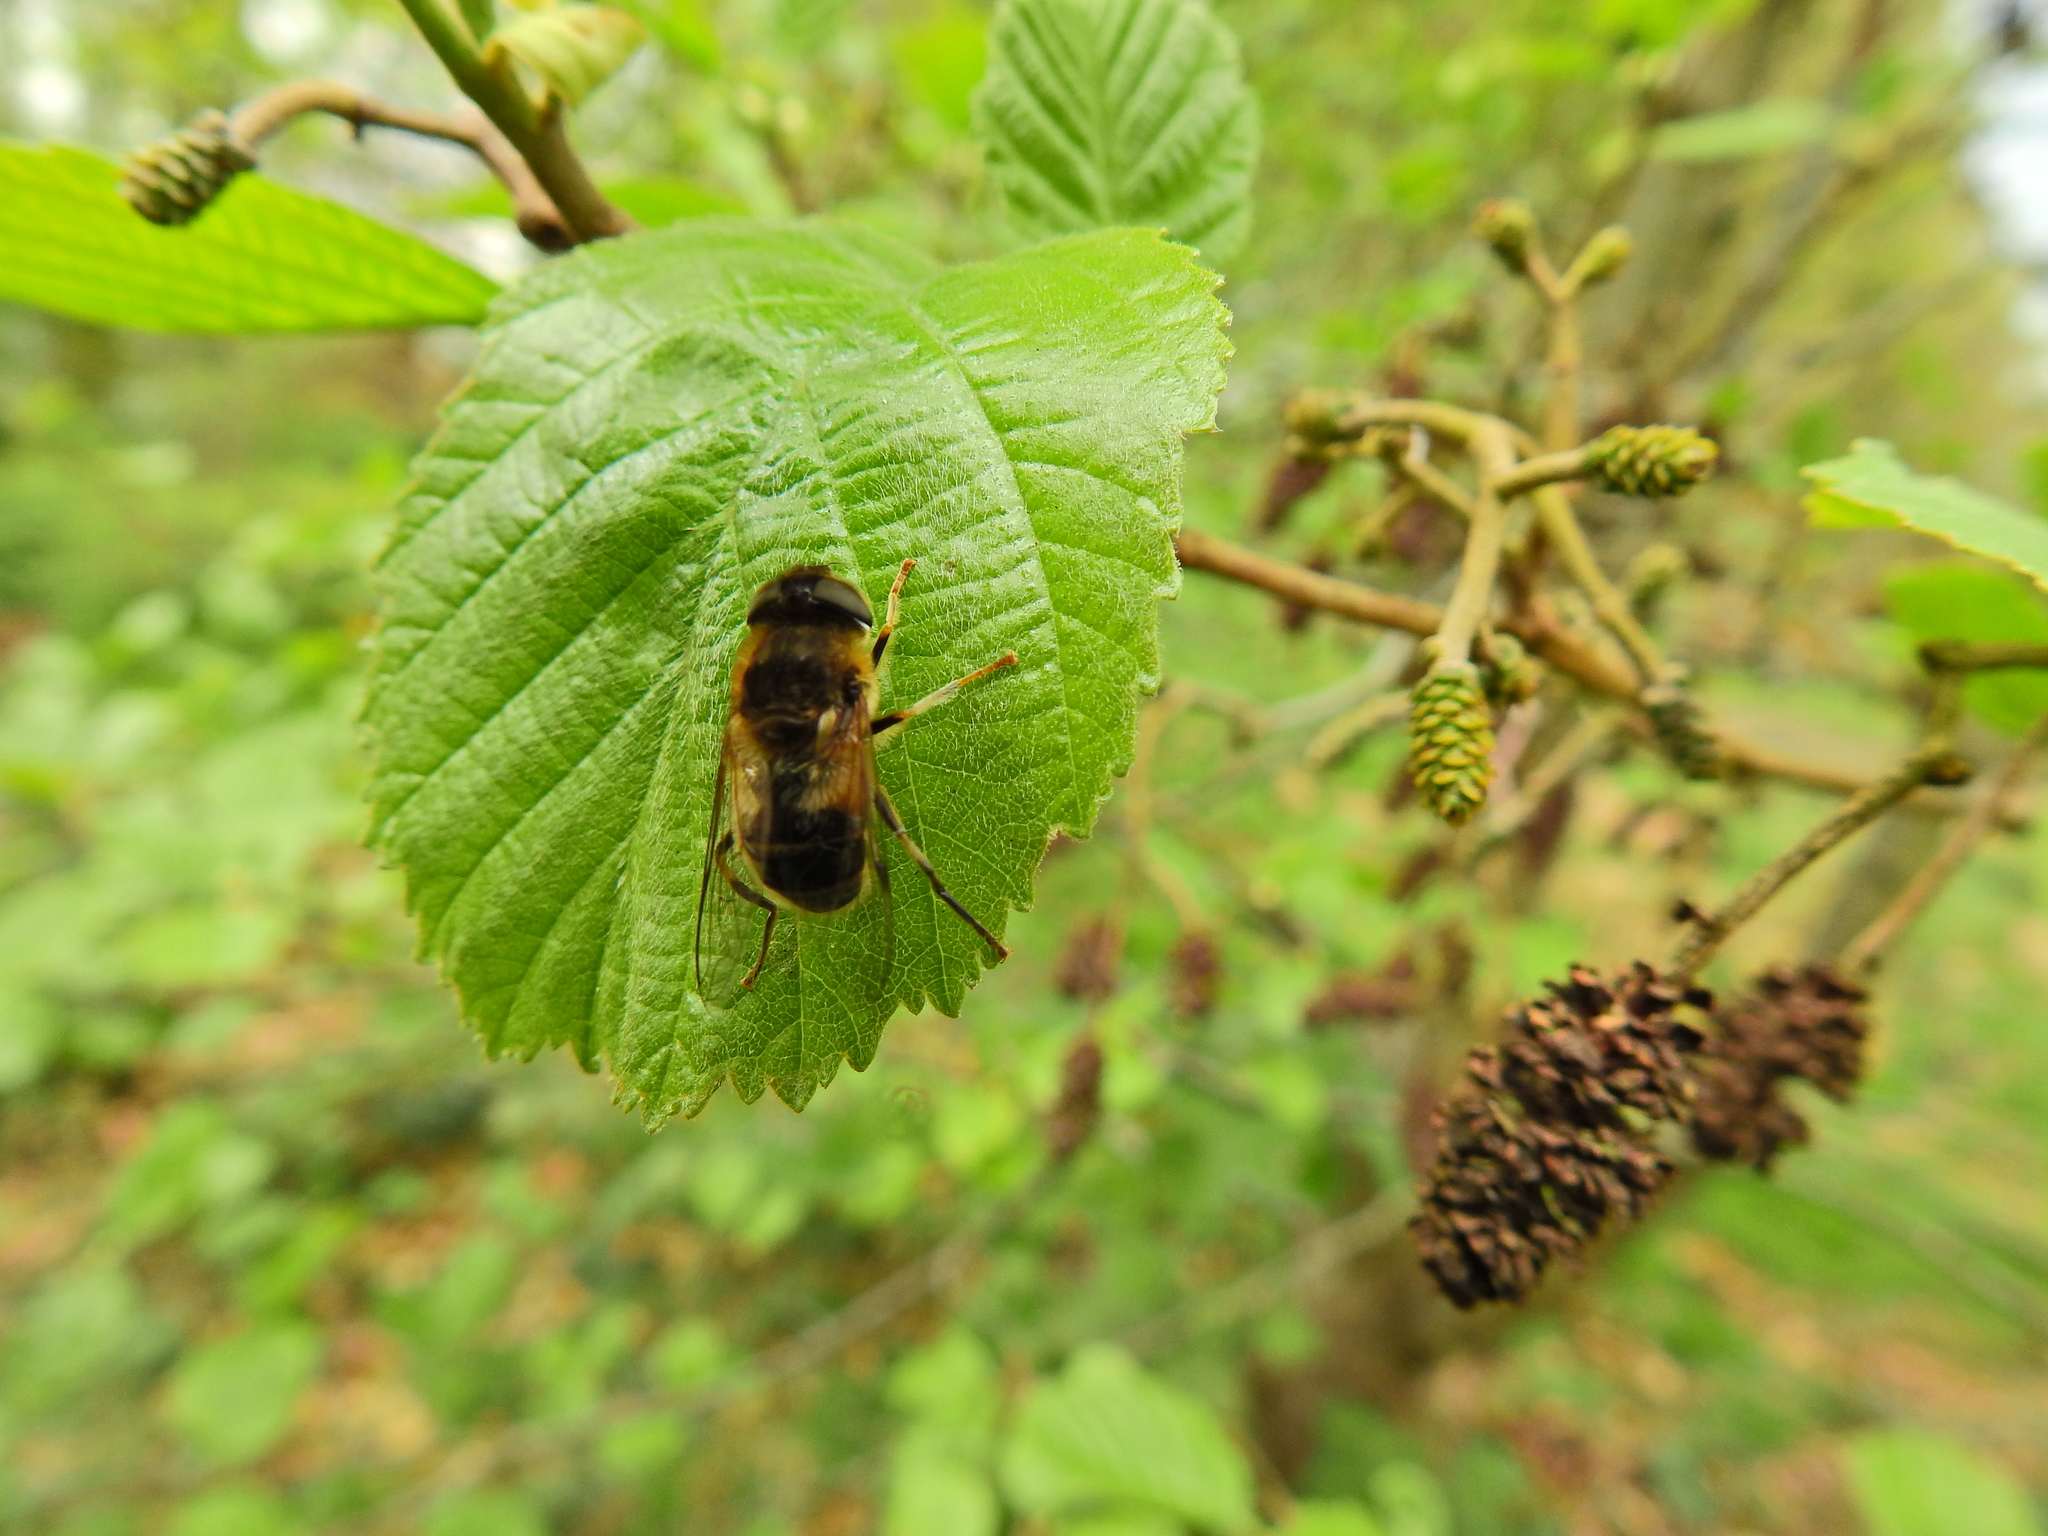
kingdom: Animalia
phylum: Arthropoda
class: Insecta
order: Diptera
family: Syrphidae
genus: Eristalis
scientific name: Eristalis pertinax
